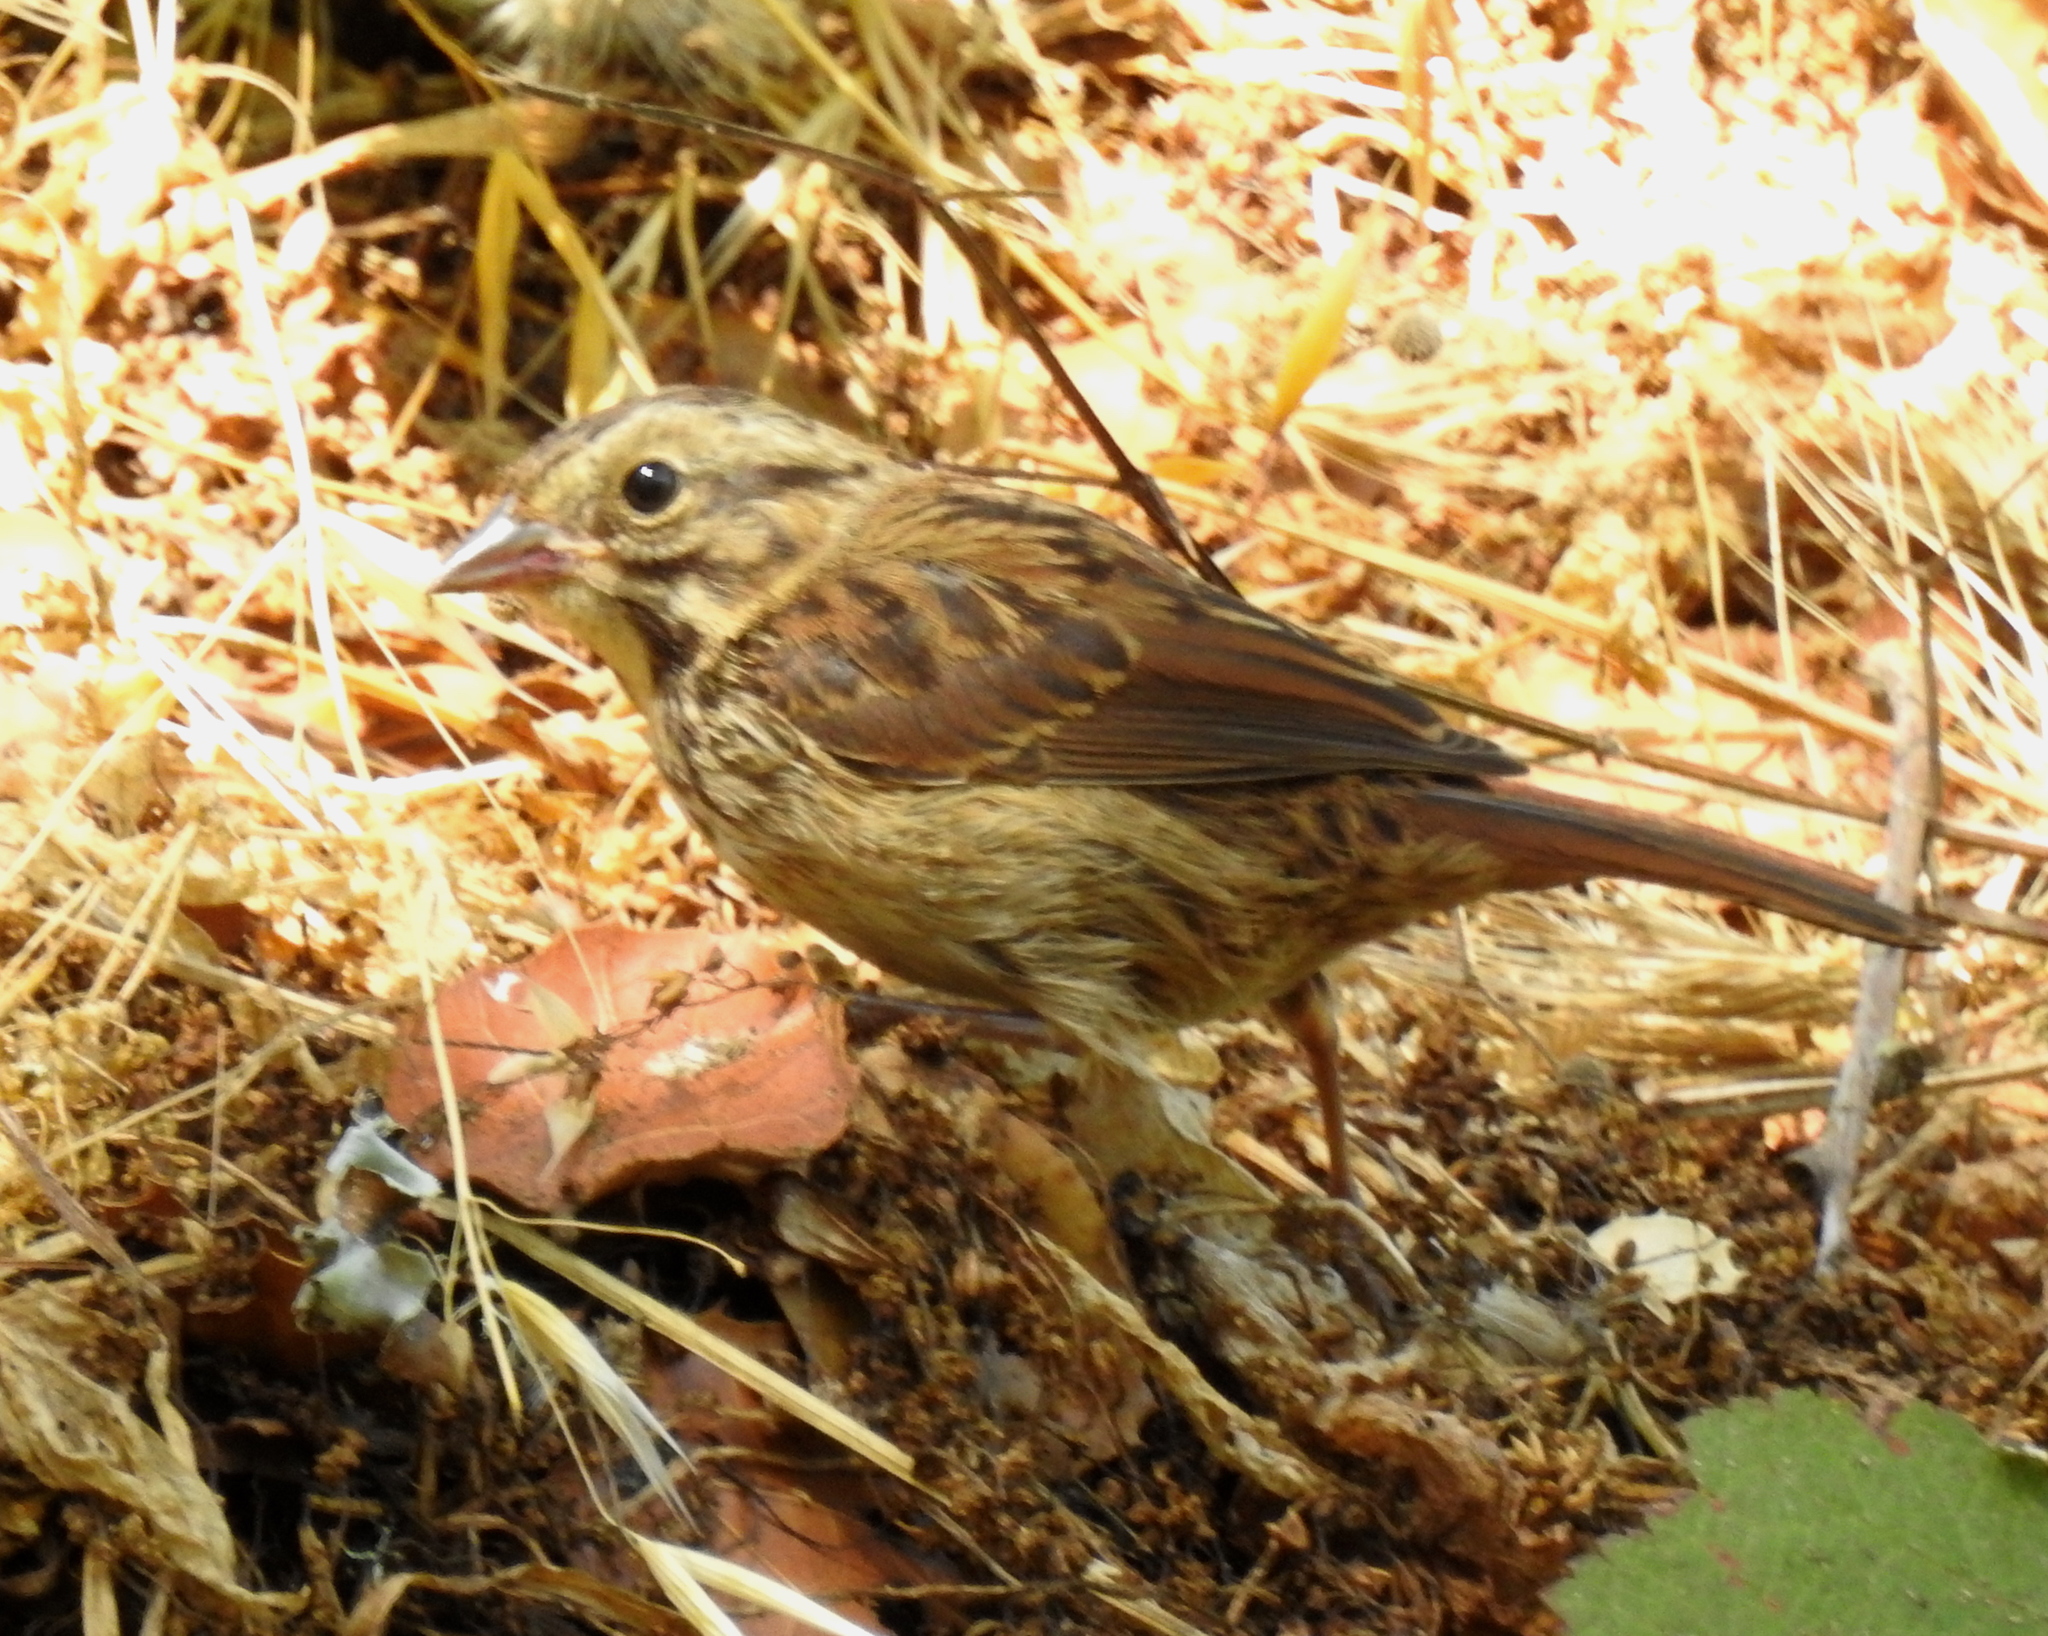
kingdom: Animalia
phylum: Chordata
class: Aves
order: Passeriformes
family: Passerellidae
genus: Melospiza
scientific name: Melospiza melodia
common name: Song sparrow
